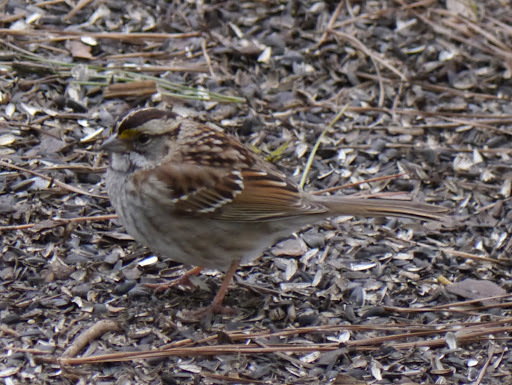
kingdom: Animalia
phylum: Chordata
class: Aves
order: Passeriformes
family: Passerellidae
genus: Zonotrichia
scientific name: Zonotrichia albicollis
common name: White-throated sparrow
